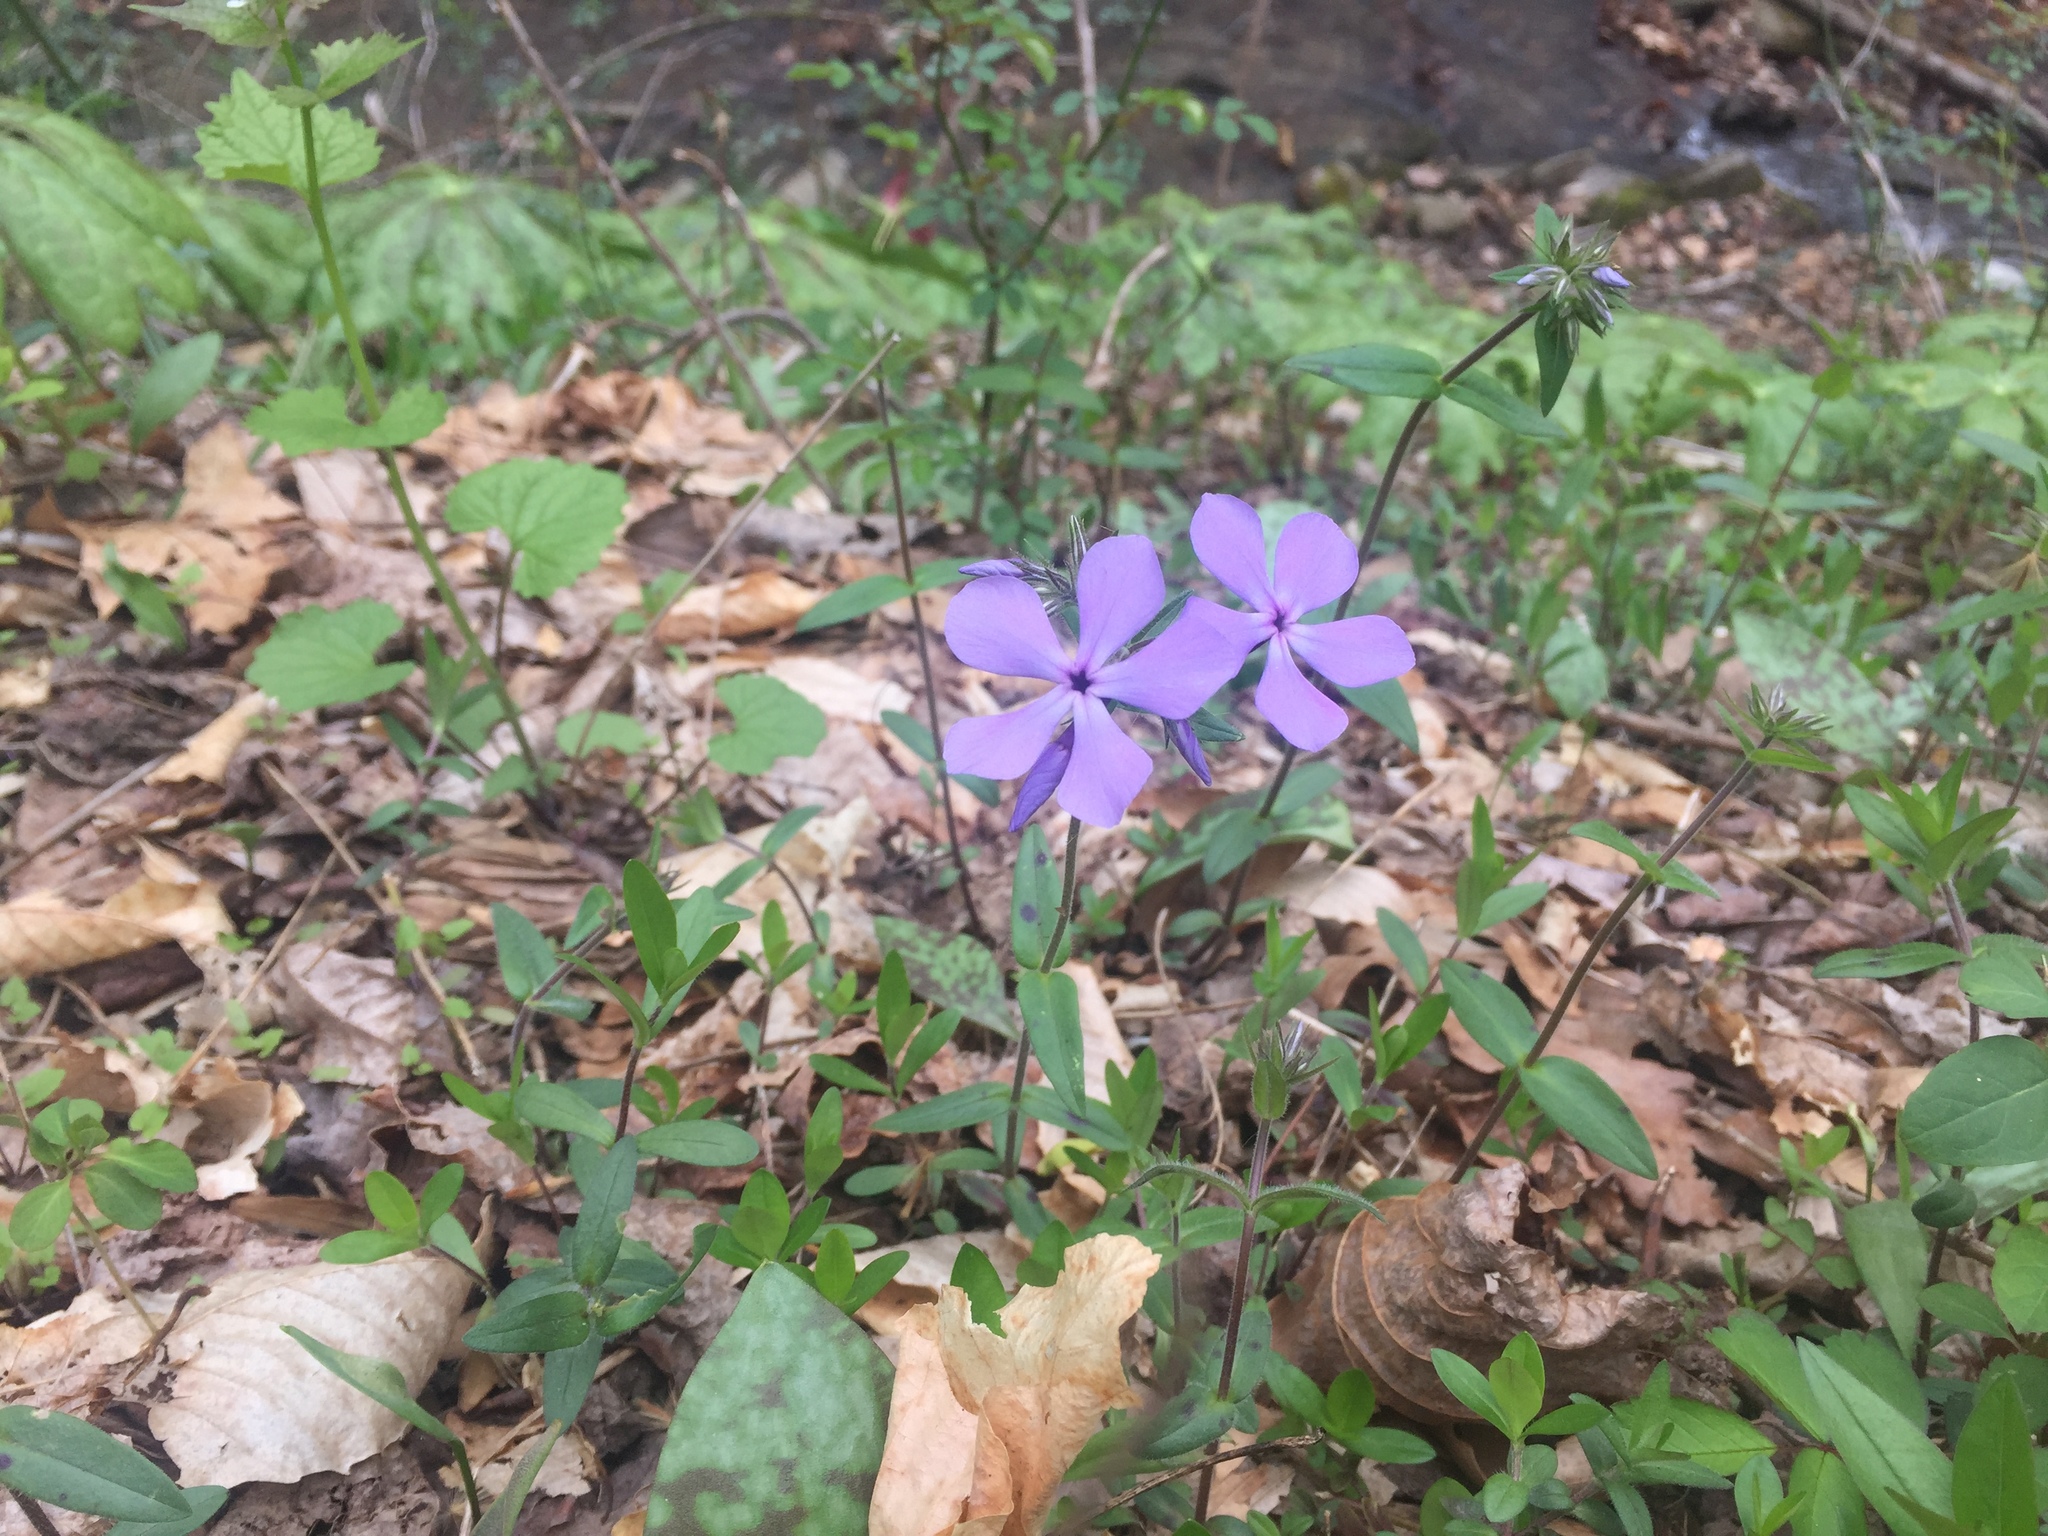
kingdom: Plantae
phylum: Tracheophyta
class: Magnoliopsida
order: Ericales
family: Polemoniaceae
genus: Phlox
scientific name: Phlox divaricata
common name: Blue phlox
